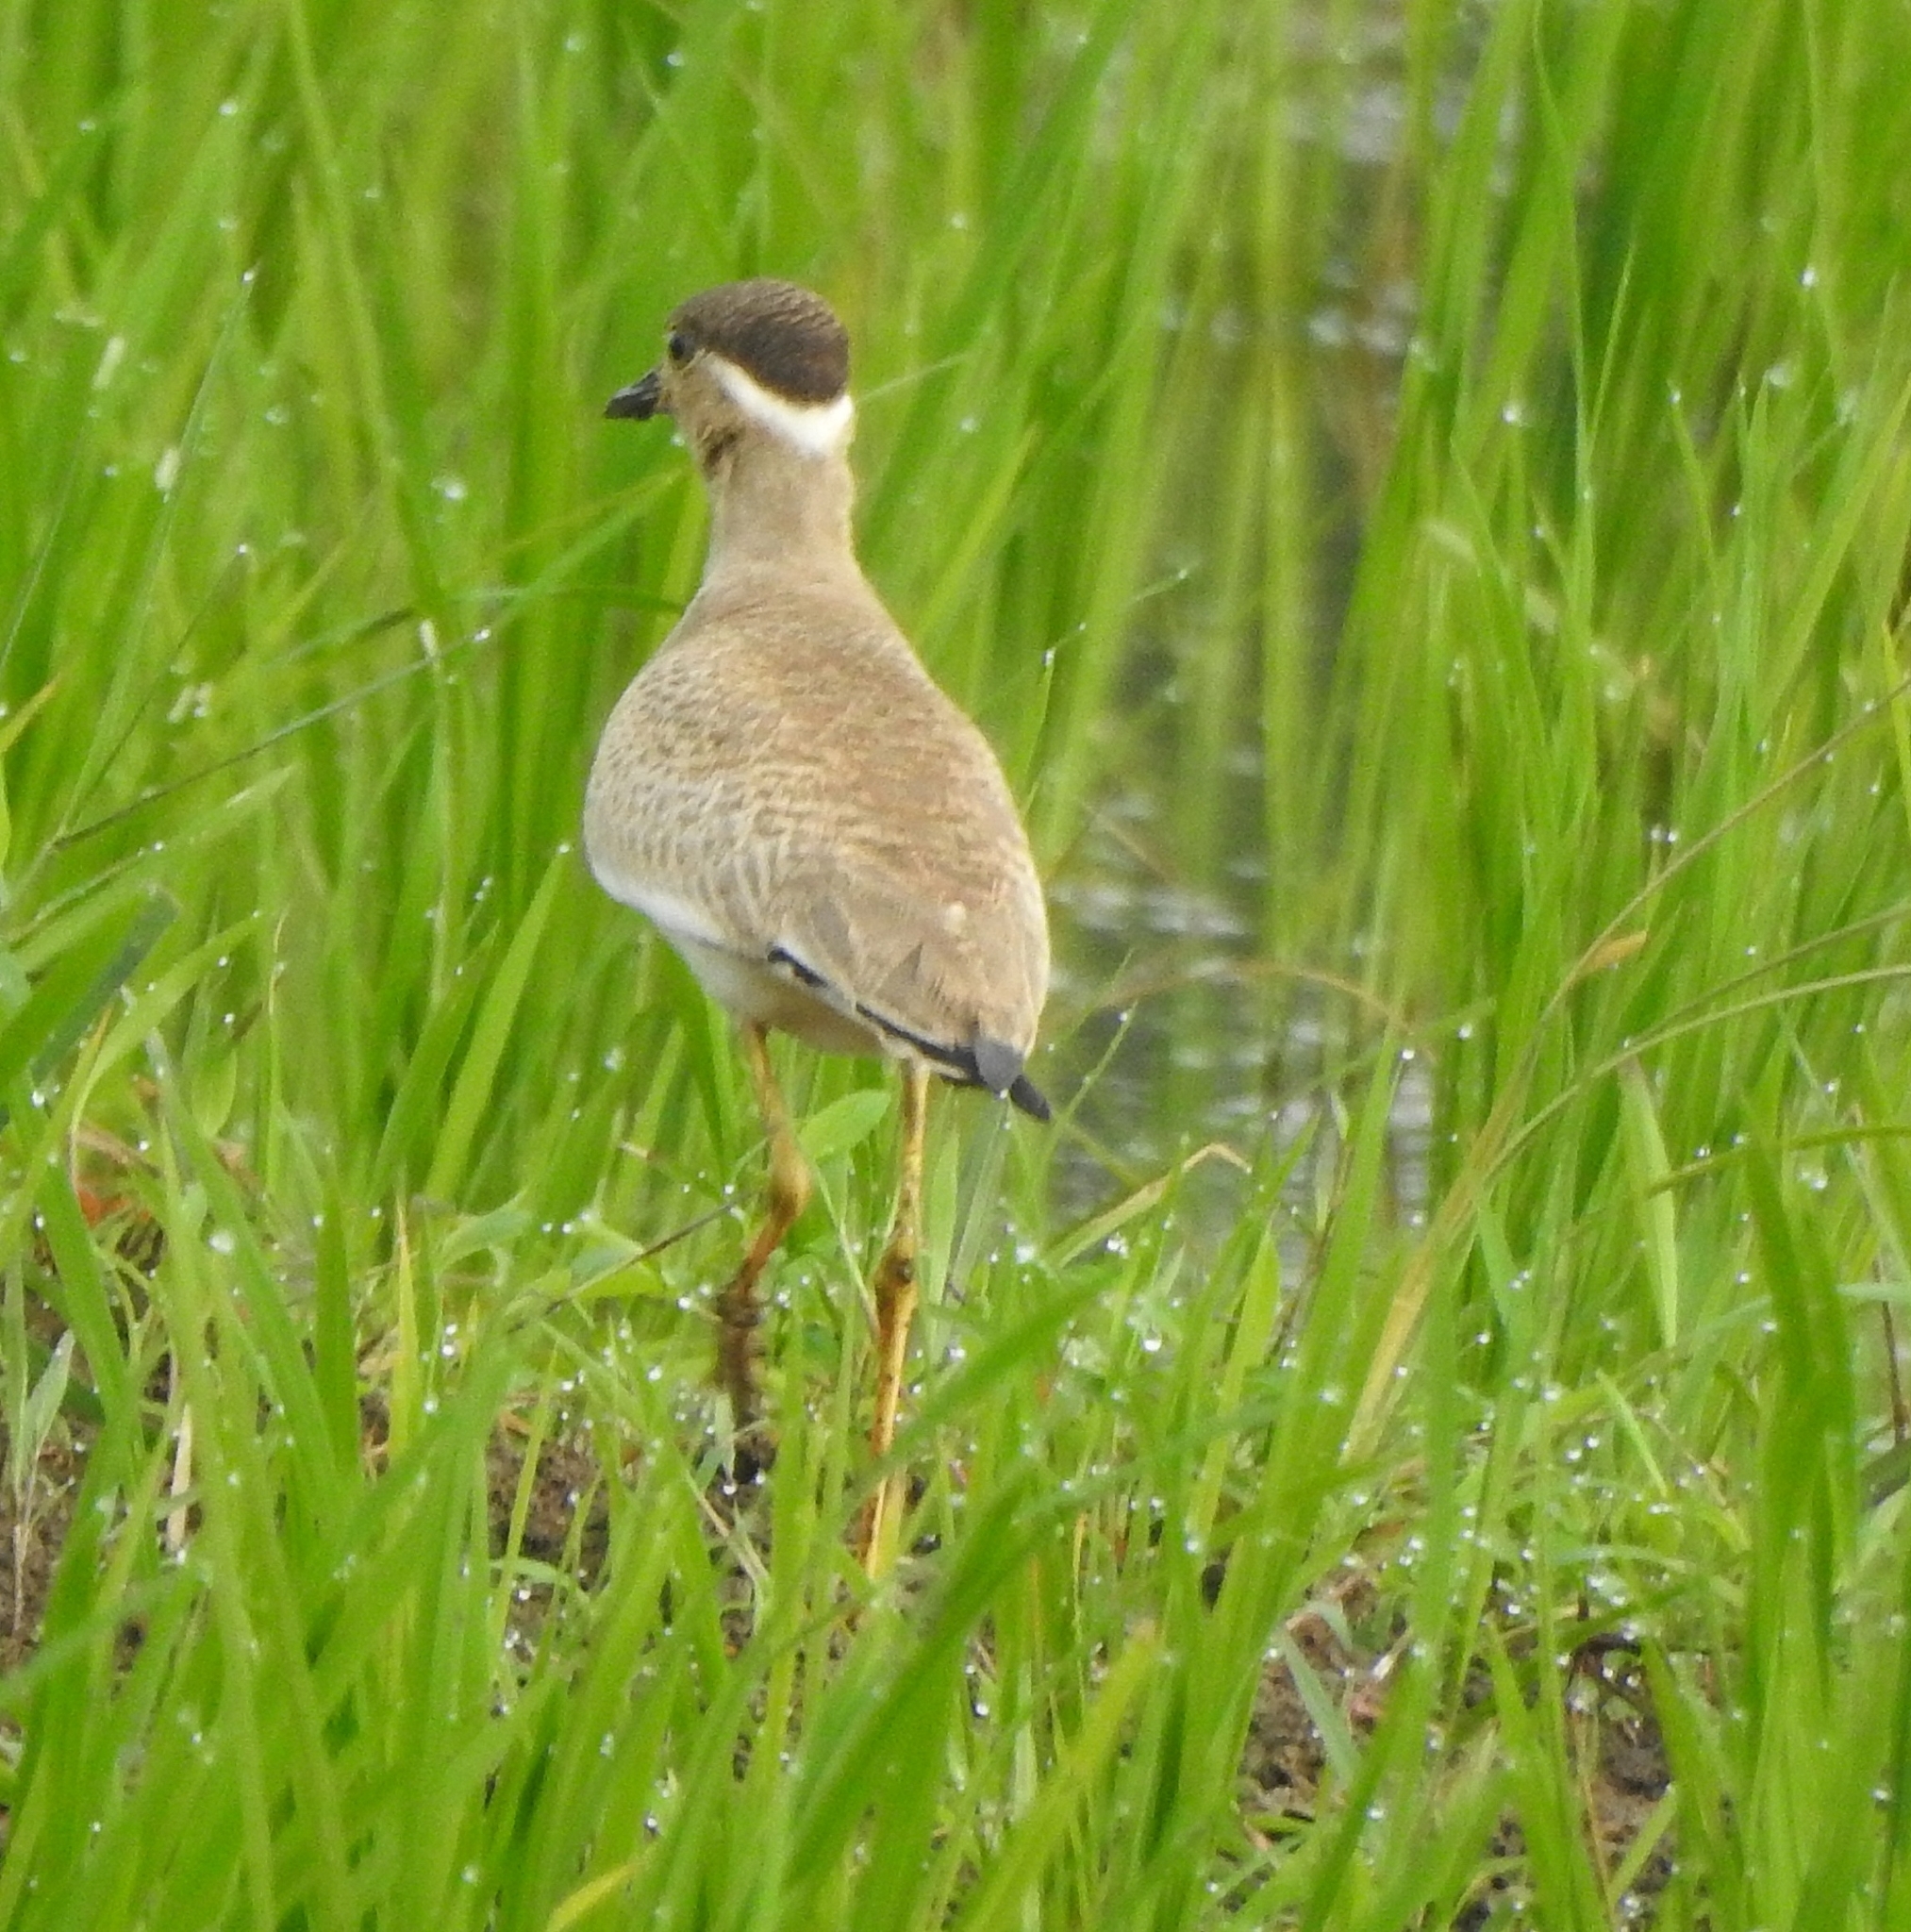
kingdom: Animalia
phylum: Chordata
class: Aves
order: Charadriiformes
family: Charadriidae
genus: Vanellus
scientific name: Vanellus malabaricus
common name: Yellow-wattled lapwing
